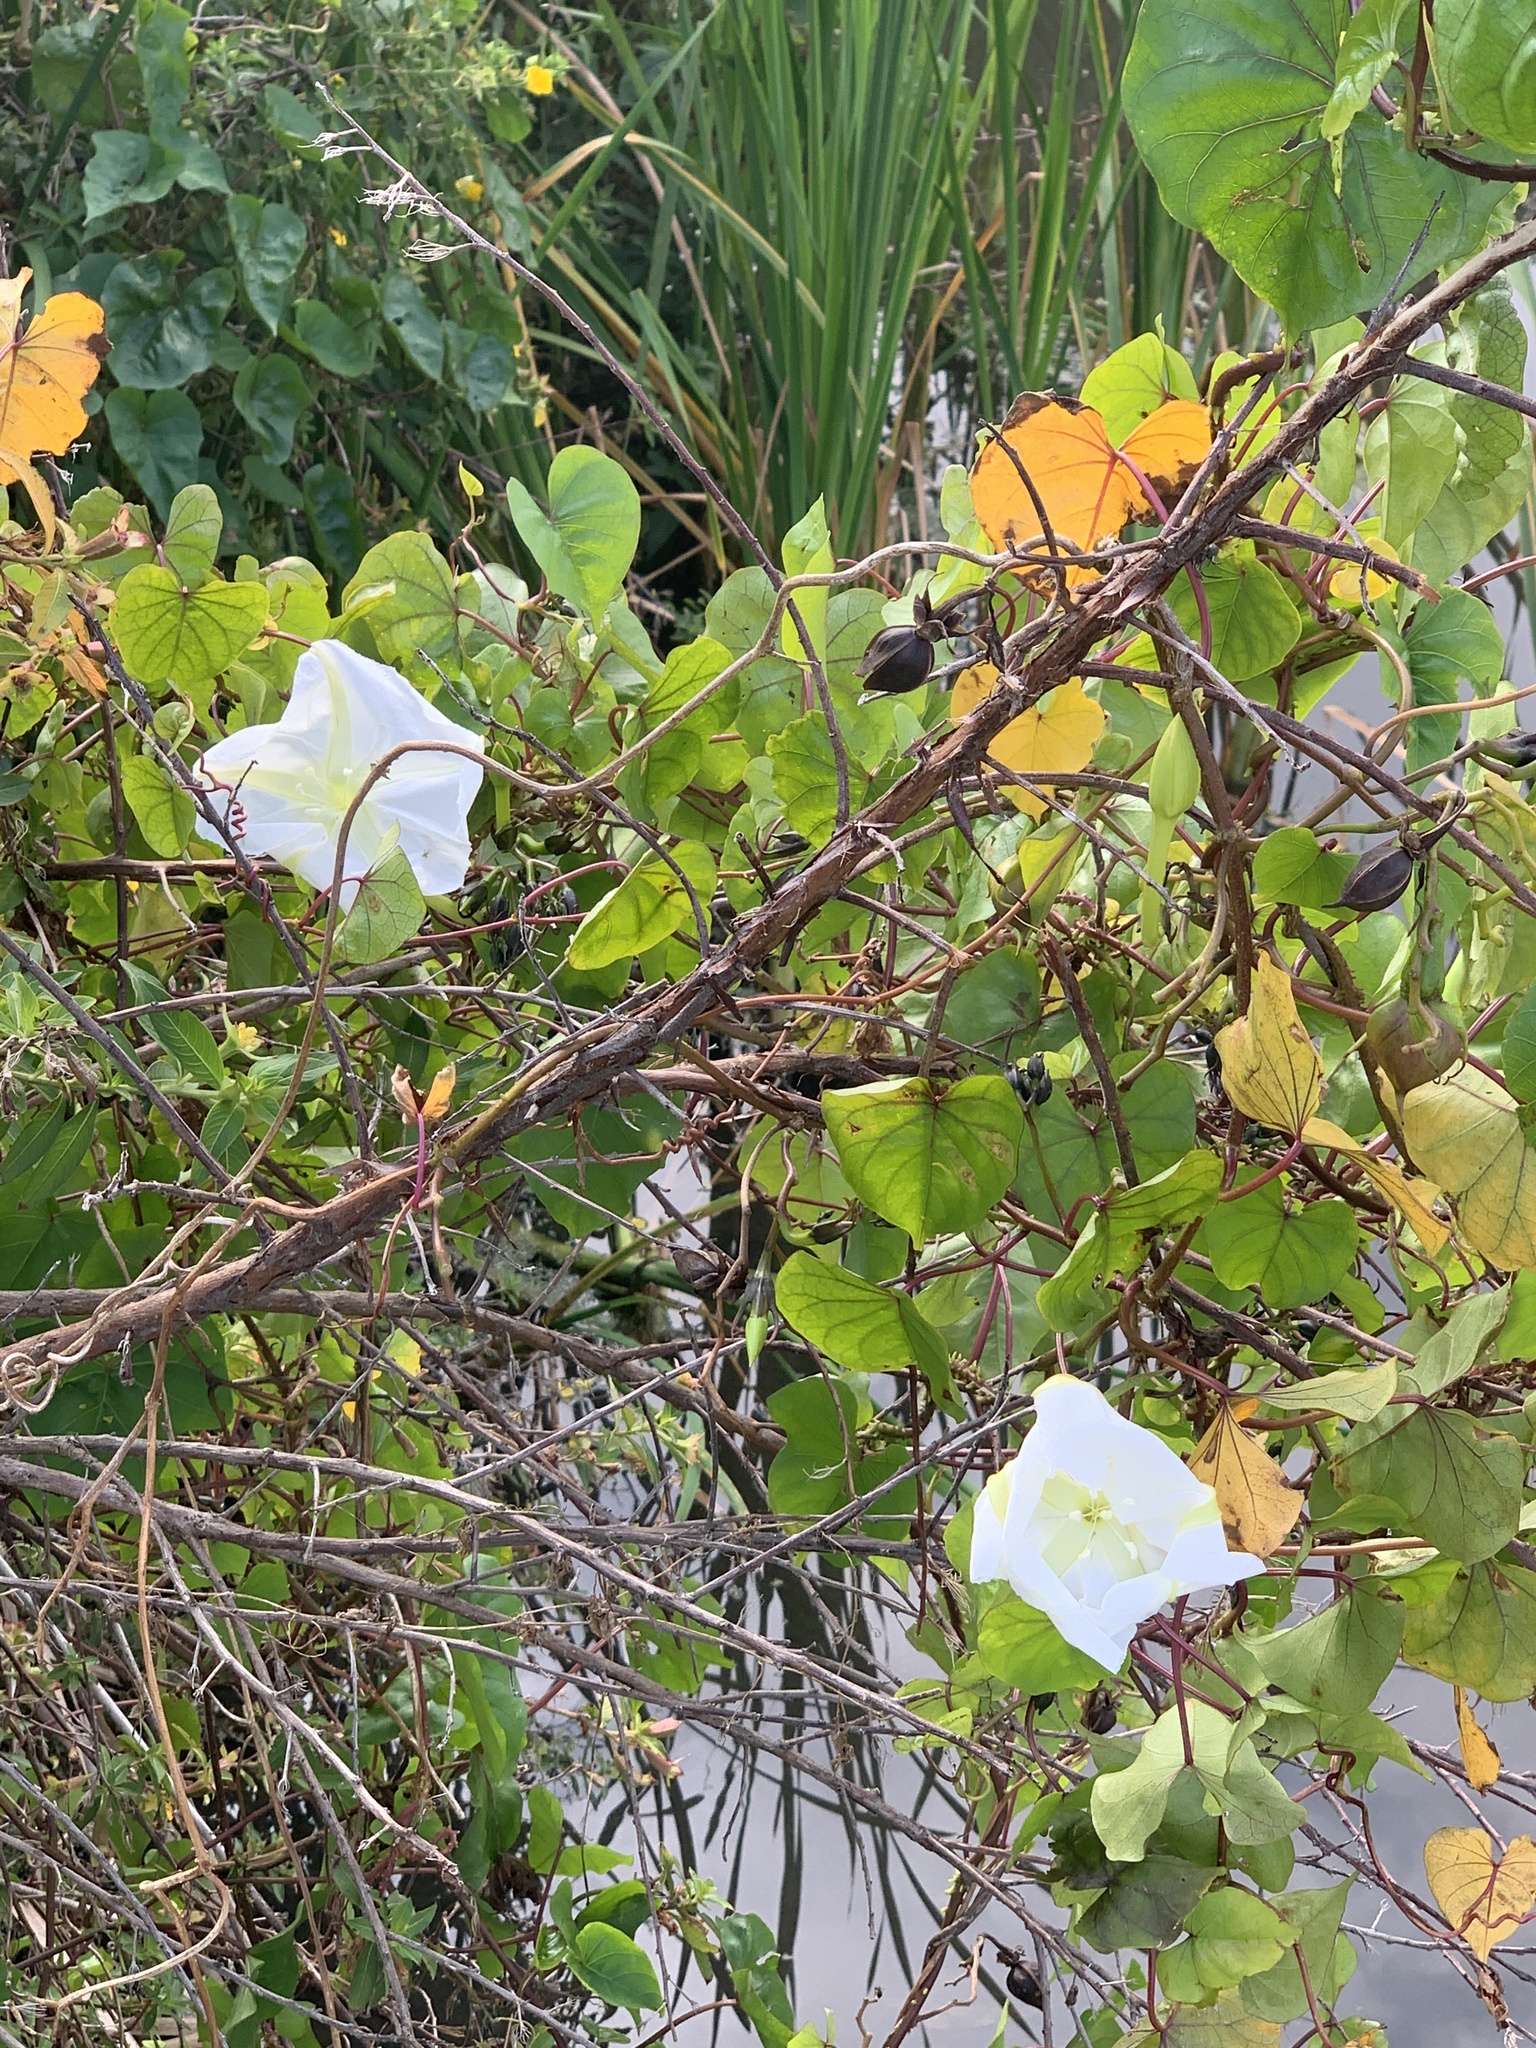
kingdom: Plantae
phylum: Tracheophyta
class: Magnoliopsida
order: Solanales
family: Convolvulaceae
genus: Ipomoea
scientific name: Ipomoea alba
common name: Moonflower
